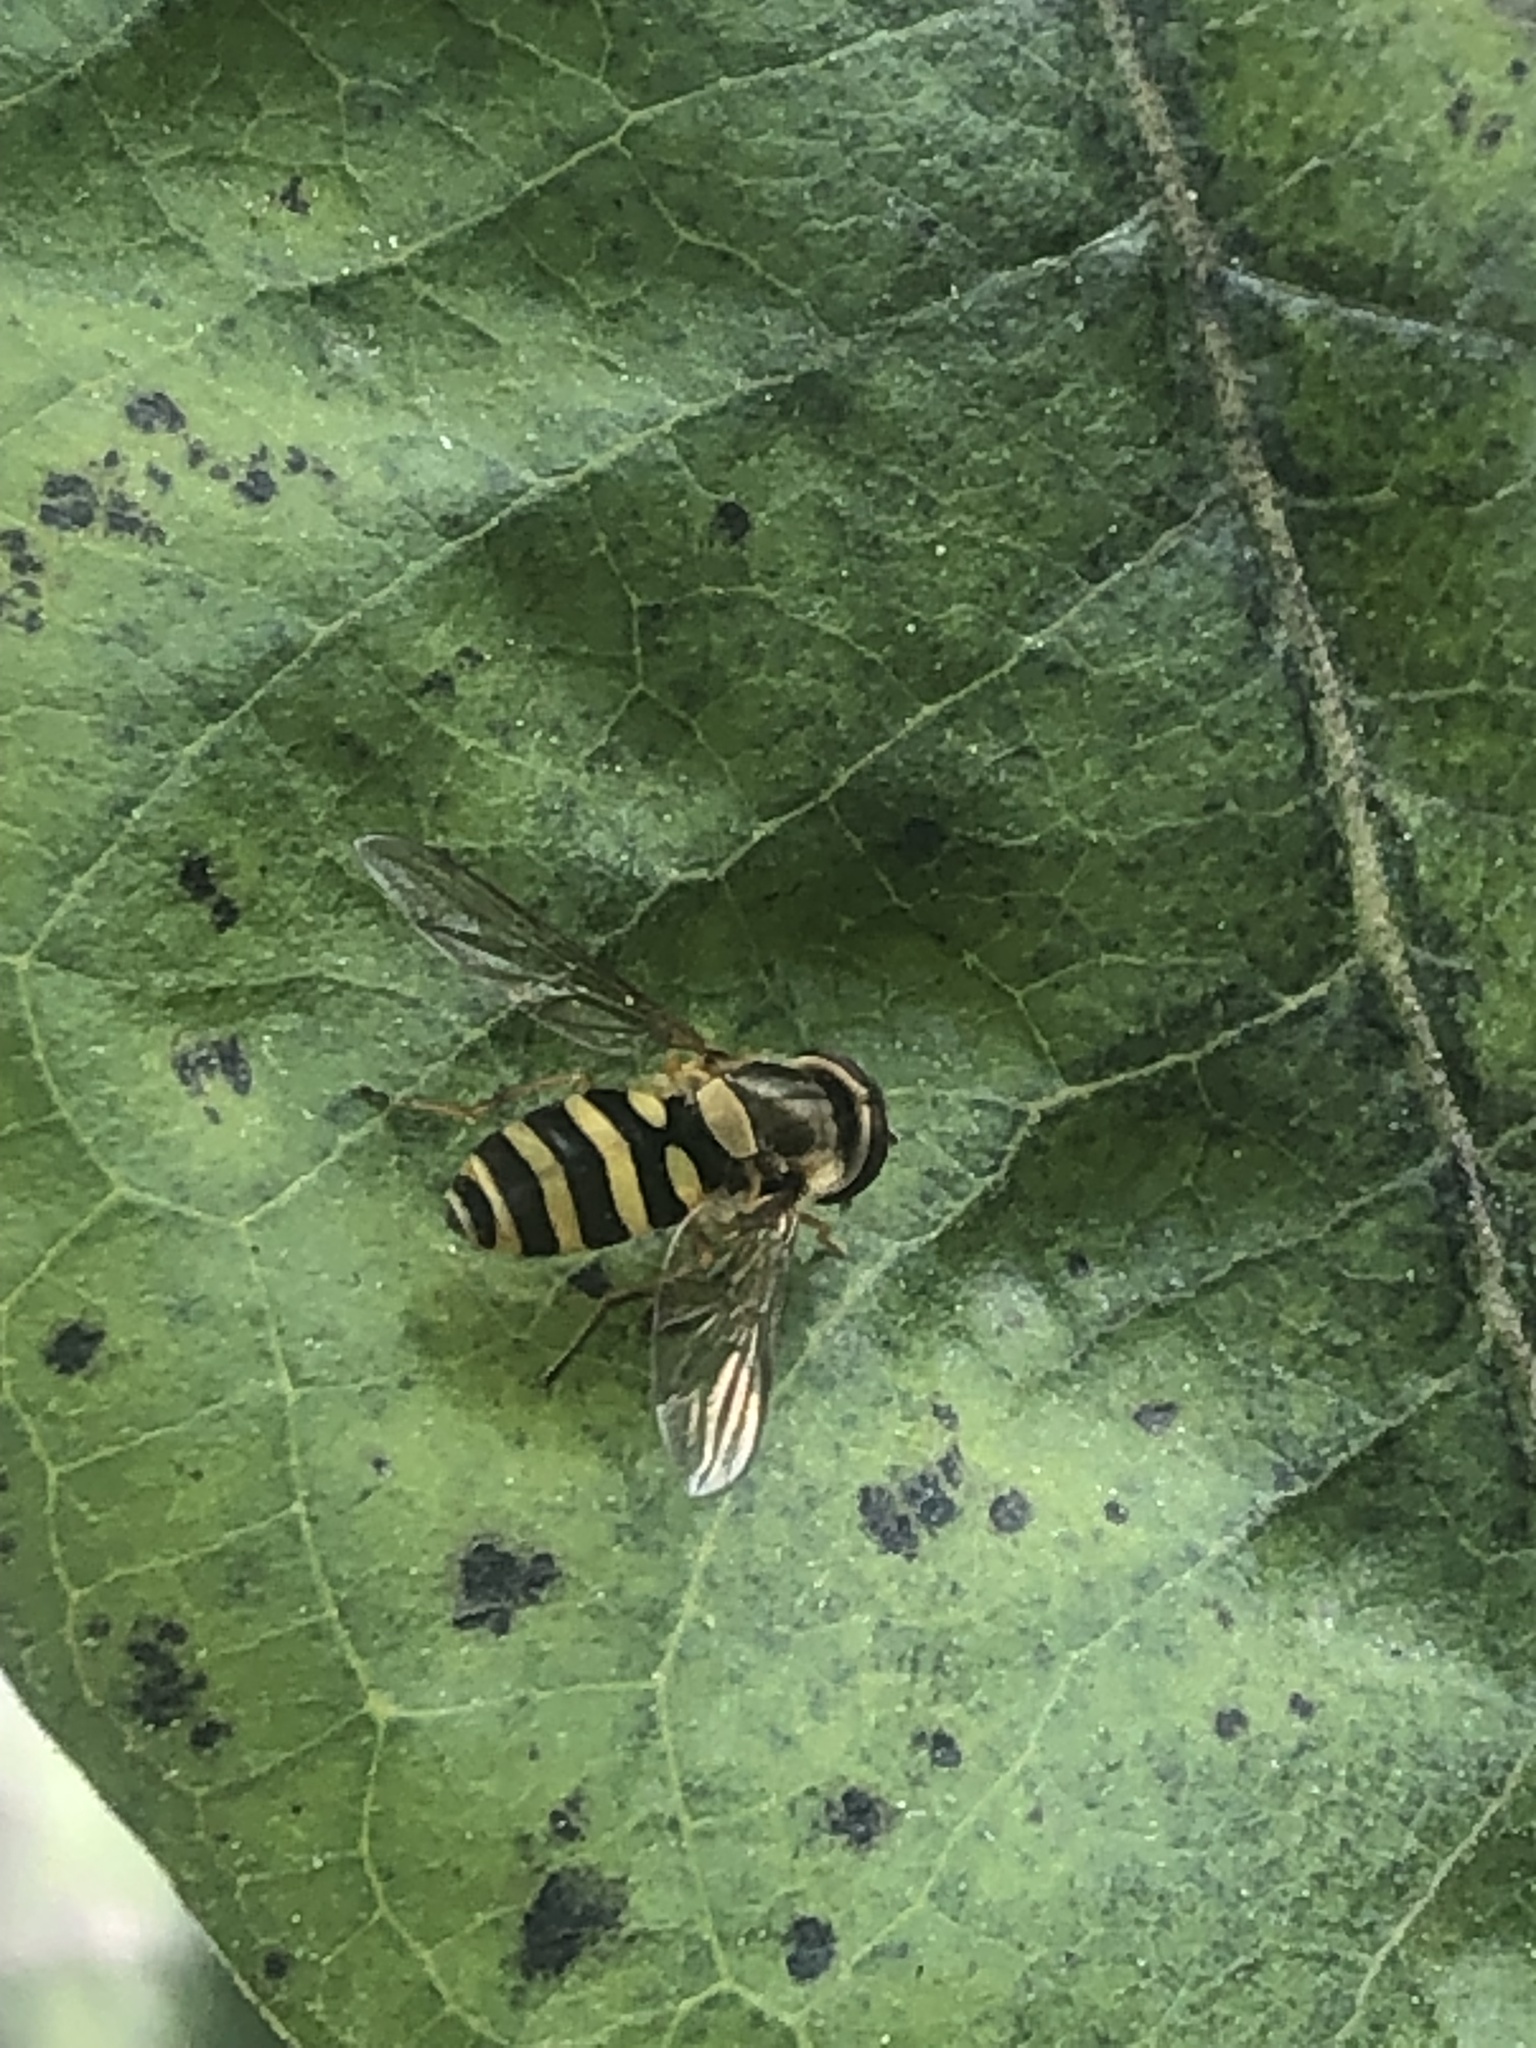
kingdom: Animalia
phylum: Arthropoda
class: Insecta
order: Diptera
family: Syrphidae
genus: Syrphus
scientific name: Syrphus
